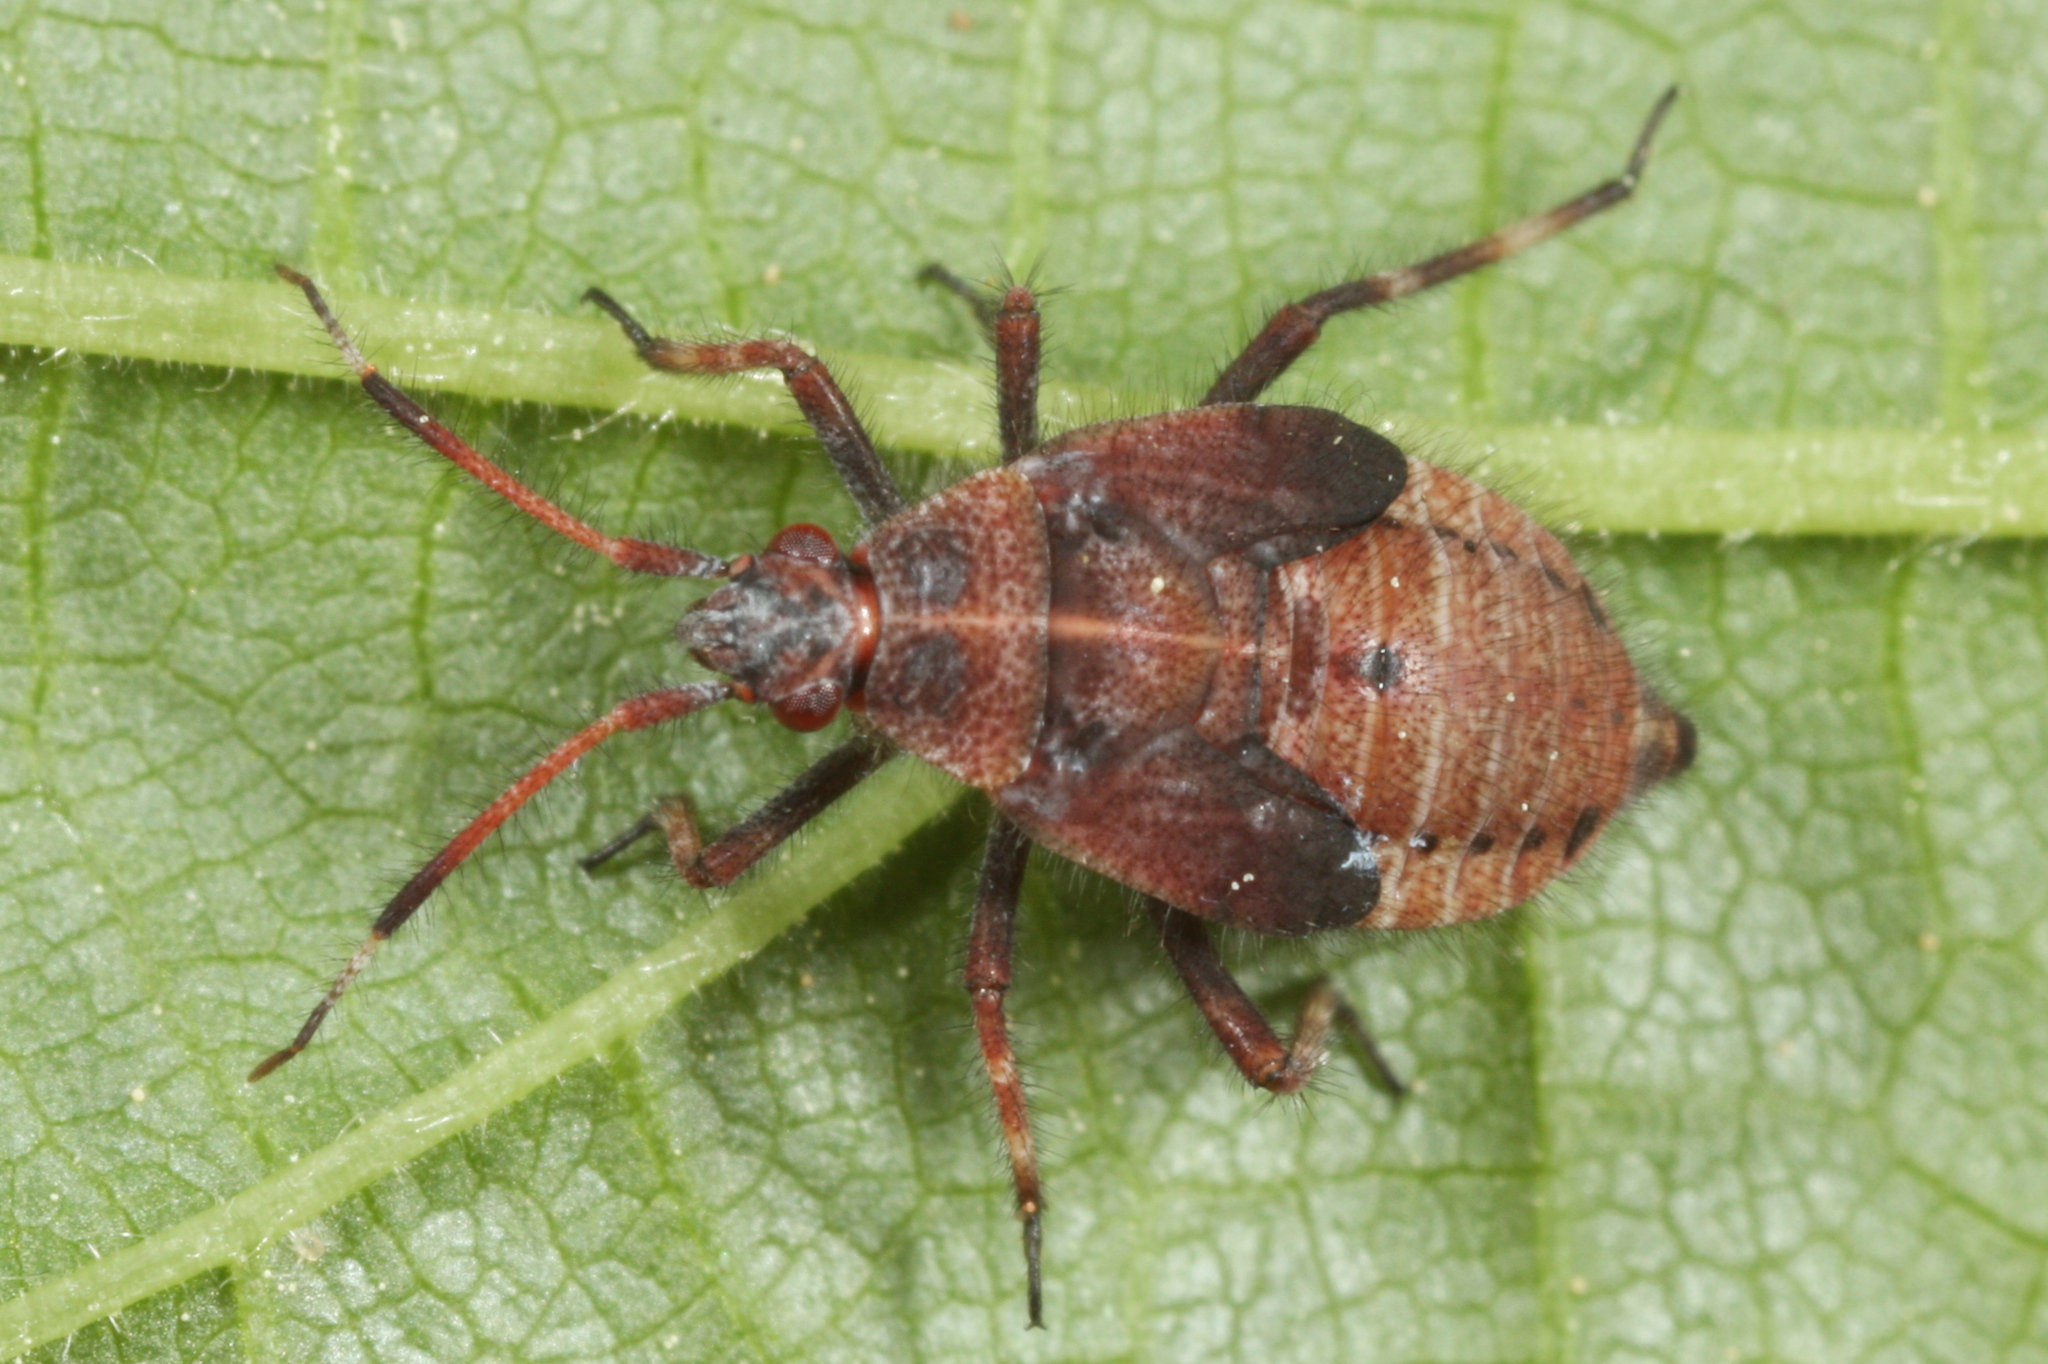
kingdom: Animalia
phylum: Arthropoda
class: Insecta
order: Hemiptera
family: Miridae
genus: Deraeocoris
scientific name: Deraeocoris olivaceus
